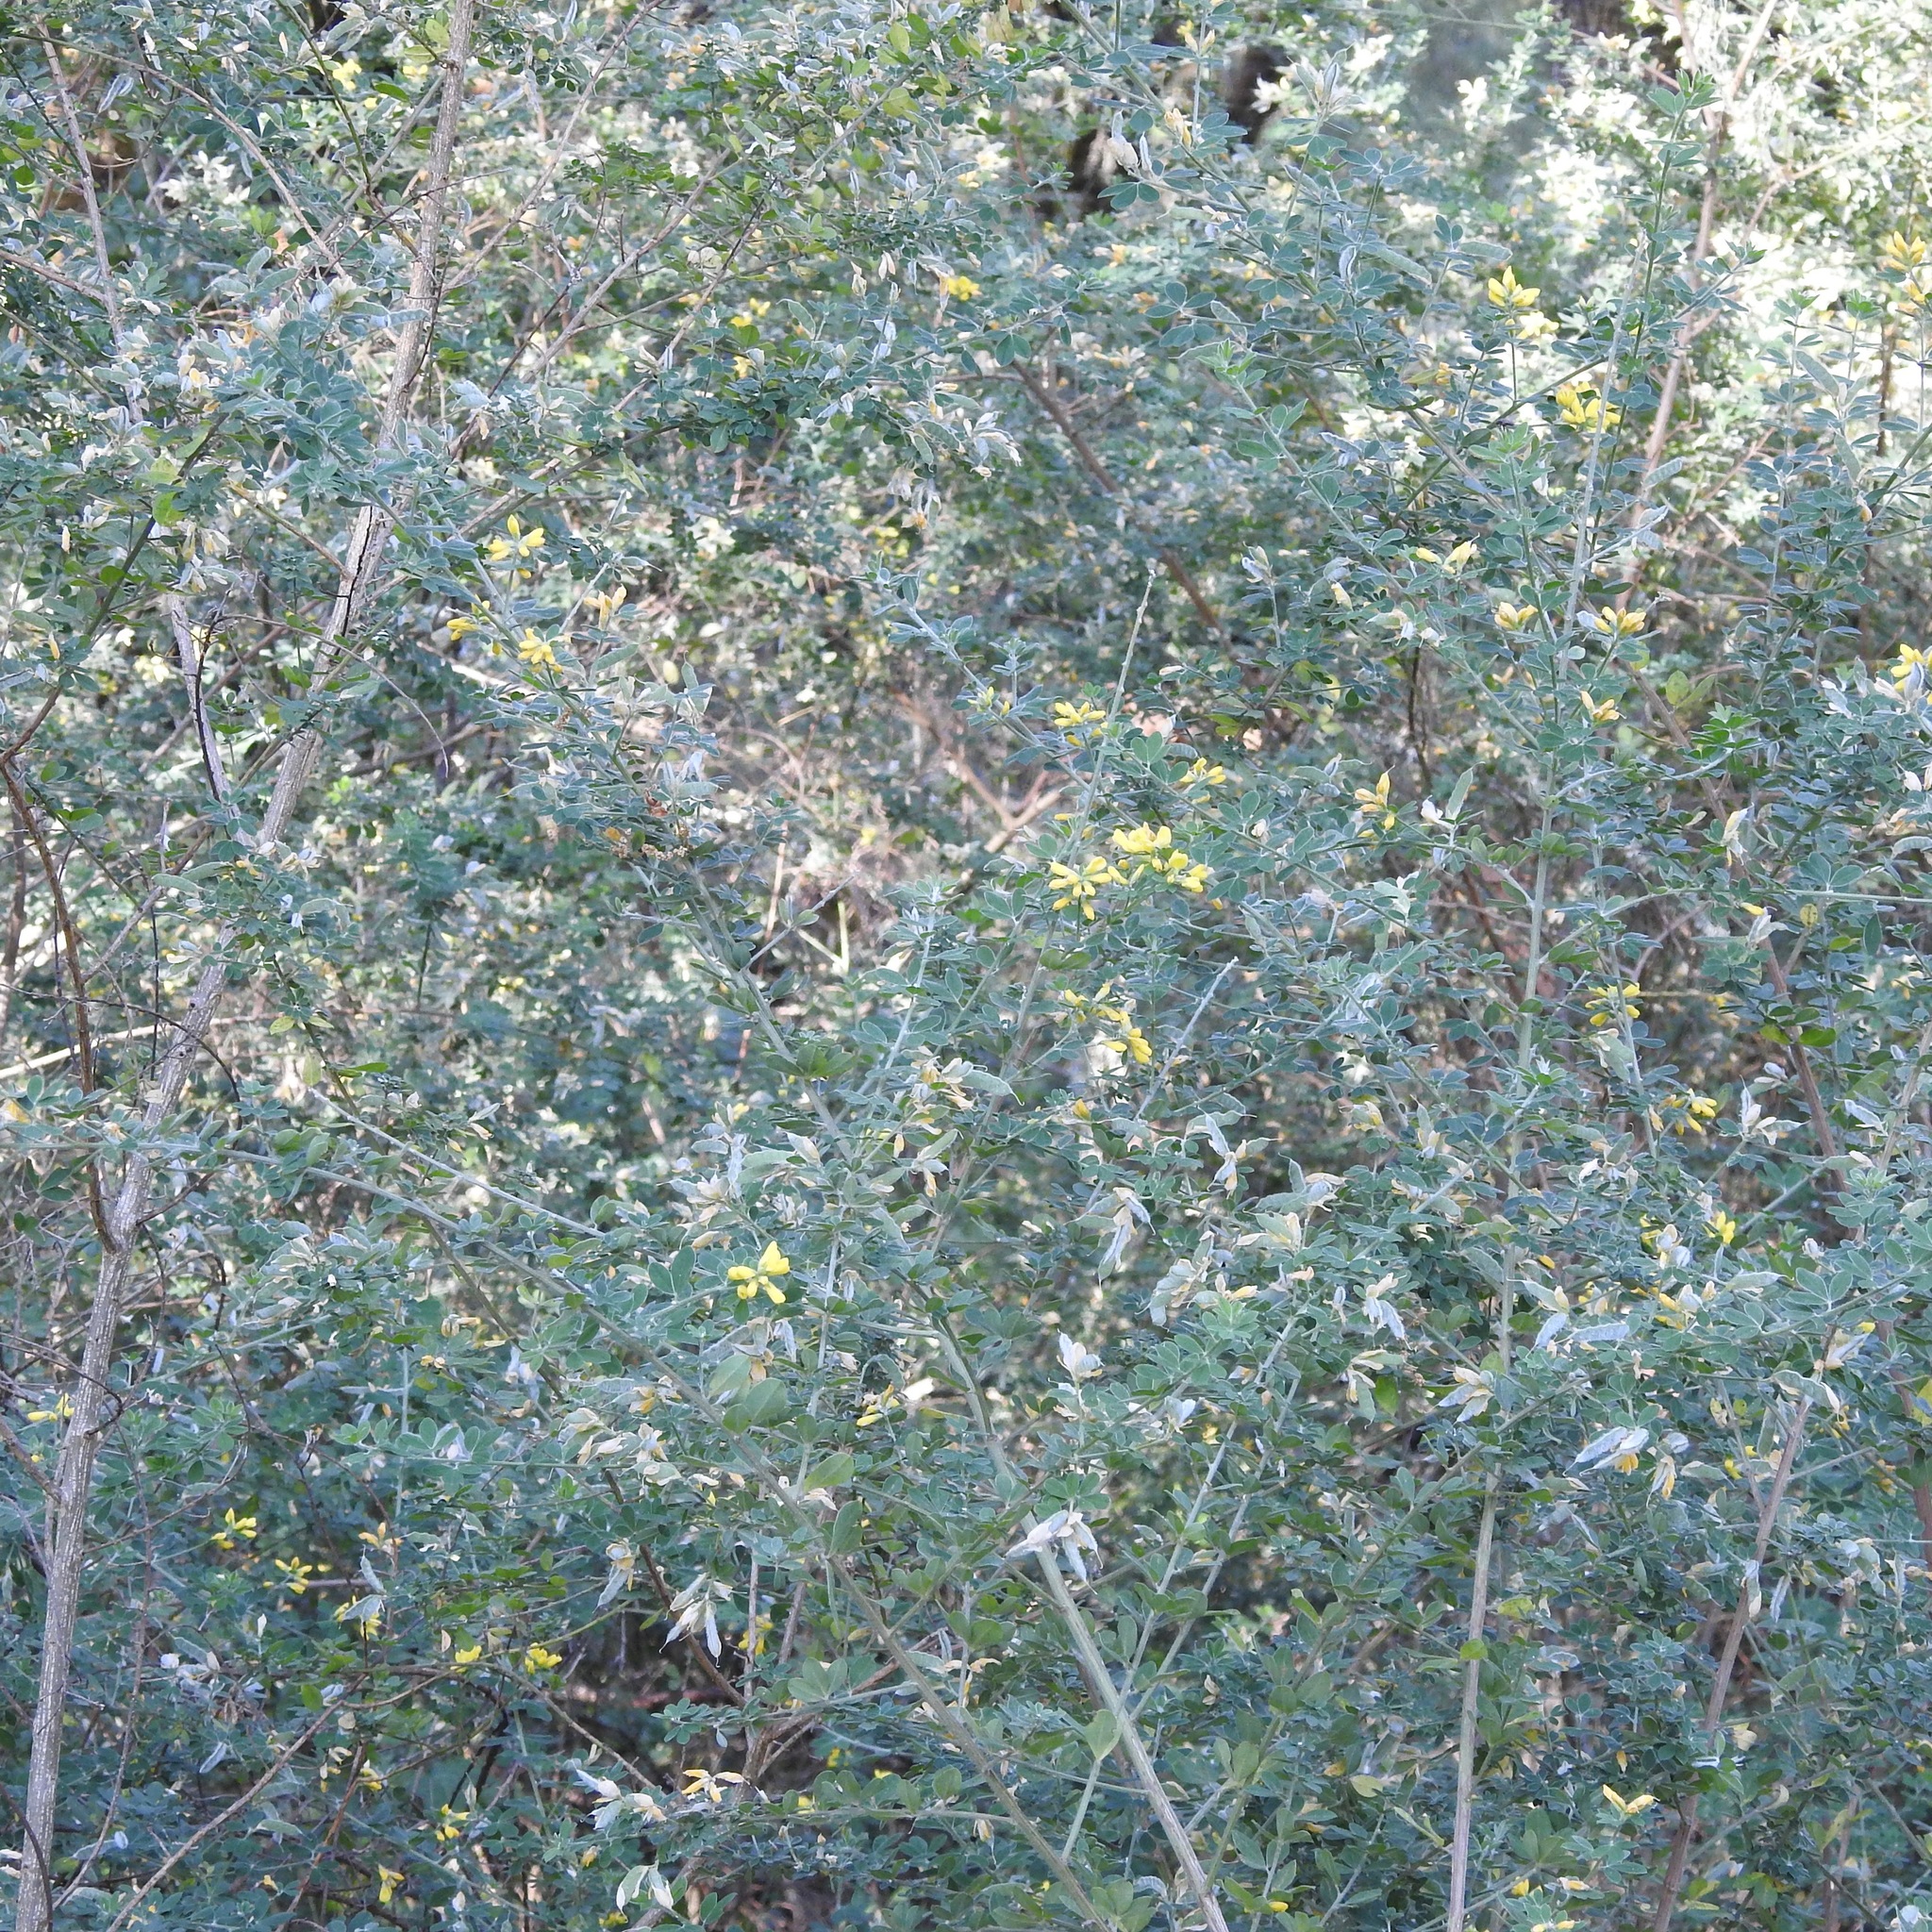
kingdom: Plantae
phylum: Tracheophyta
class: Magnoliopsida
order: Fabales
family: Fabaceae
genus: Genista
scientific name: Genista monspessulana
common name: Montpellier broom
